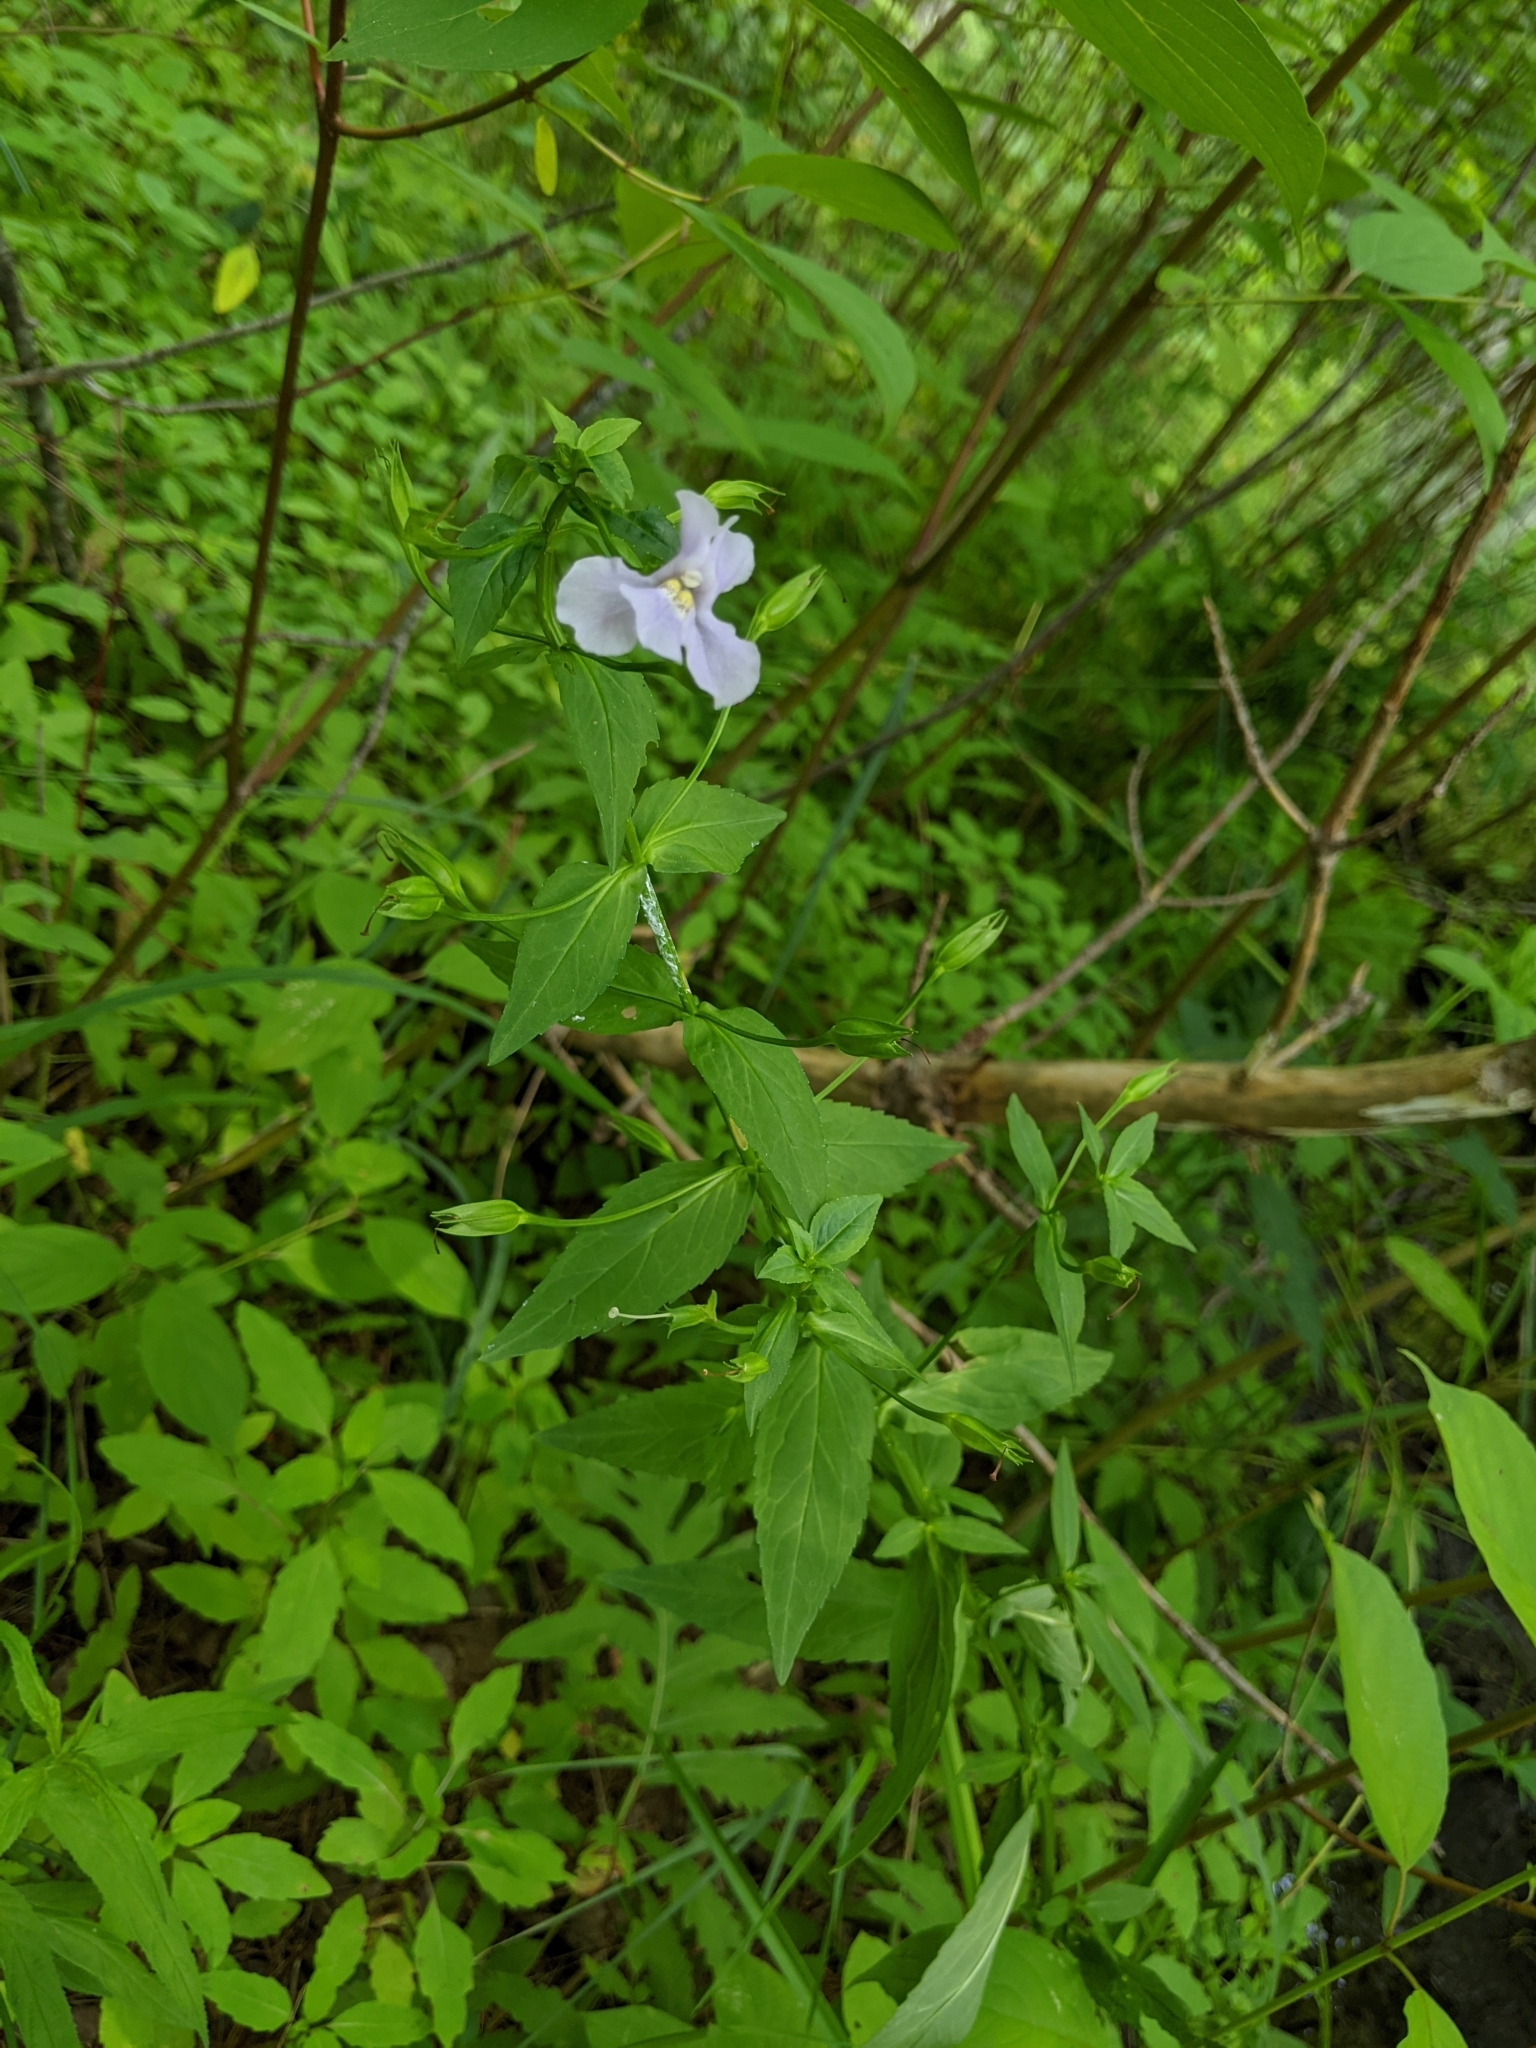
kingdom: Plantae
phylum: Tracheophyta
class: Magnoliopsida
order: Lamiales
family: Phrymaceae
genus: Mimulus
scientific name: Mimulus ringens
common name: Allegheny monkeyflower
